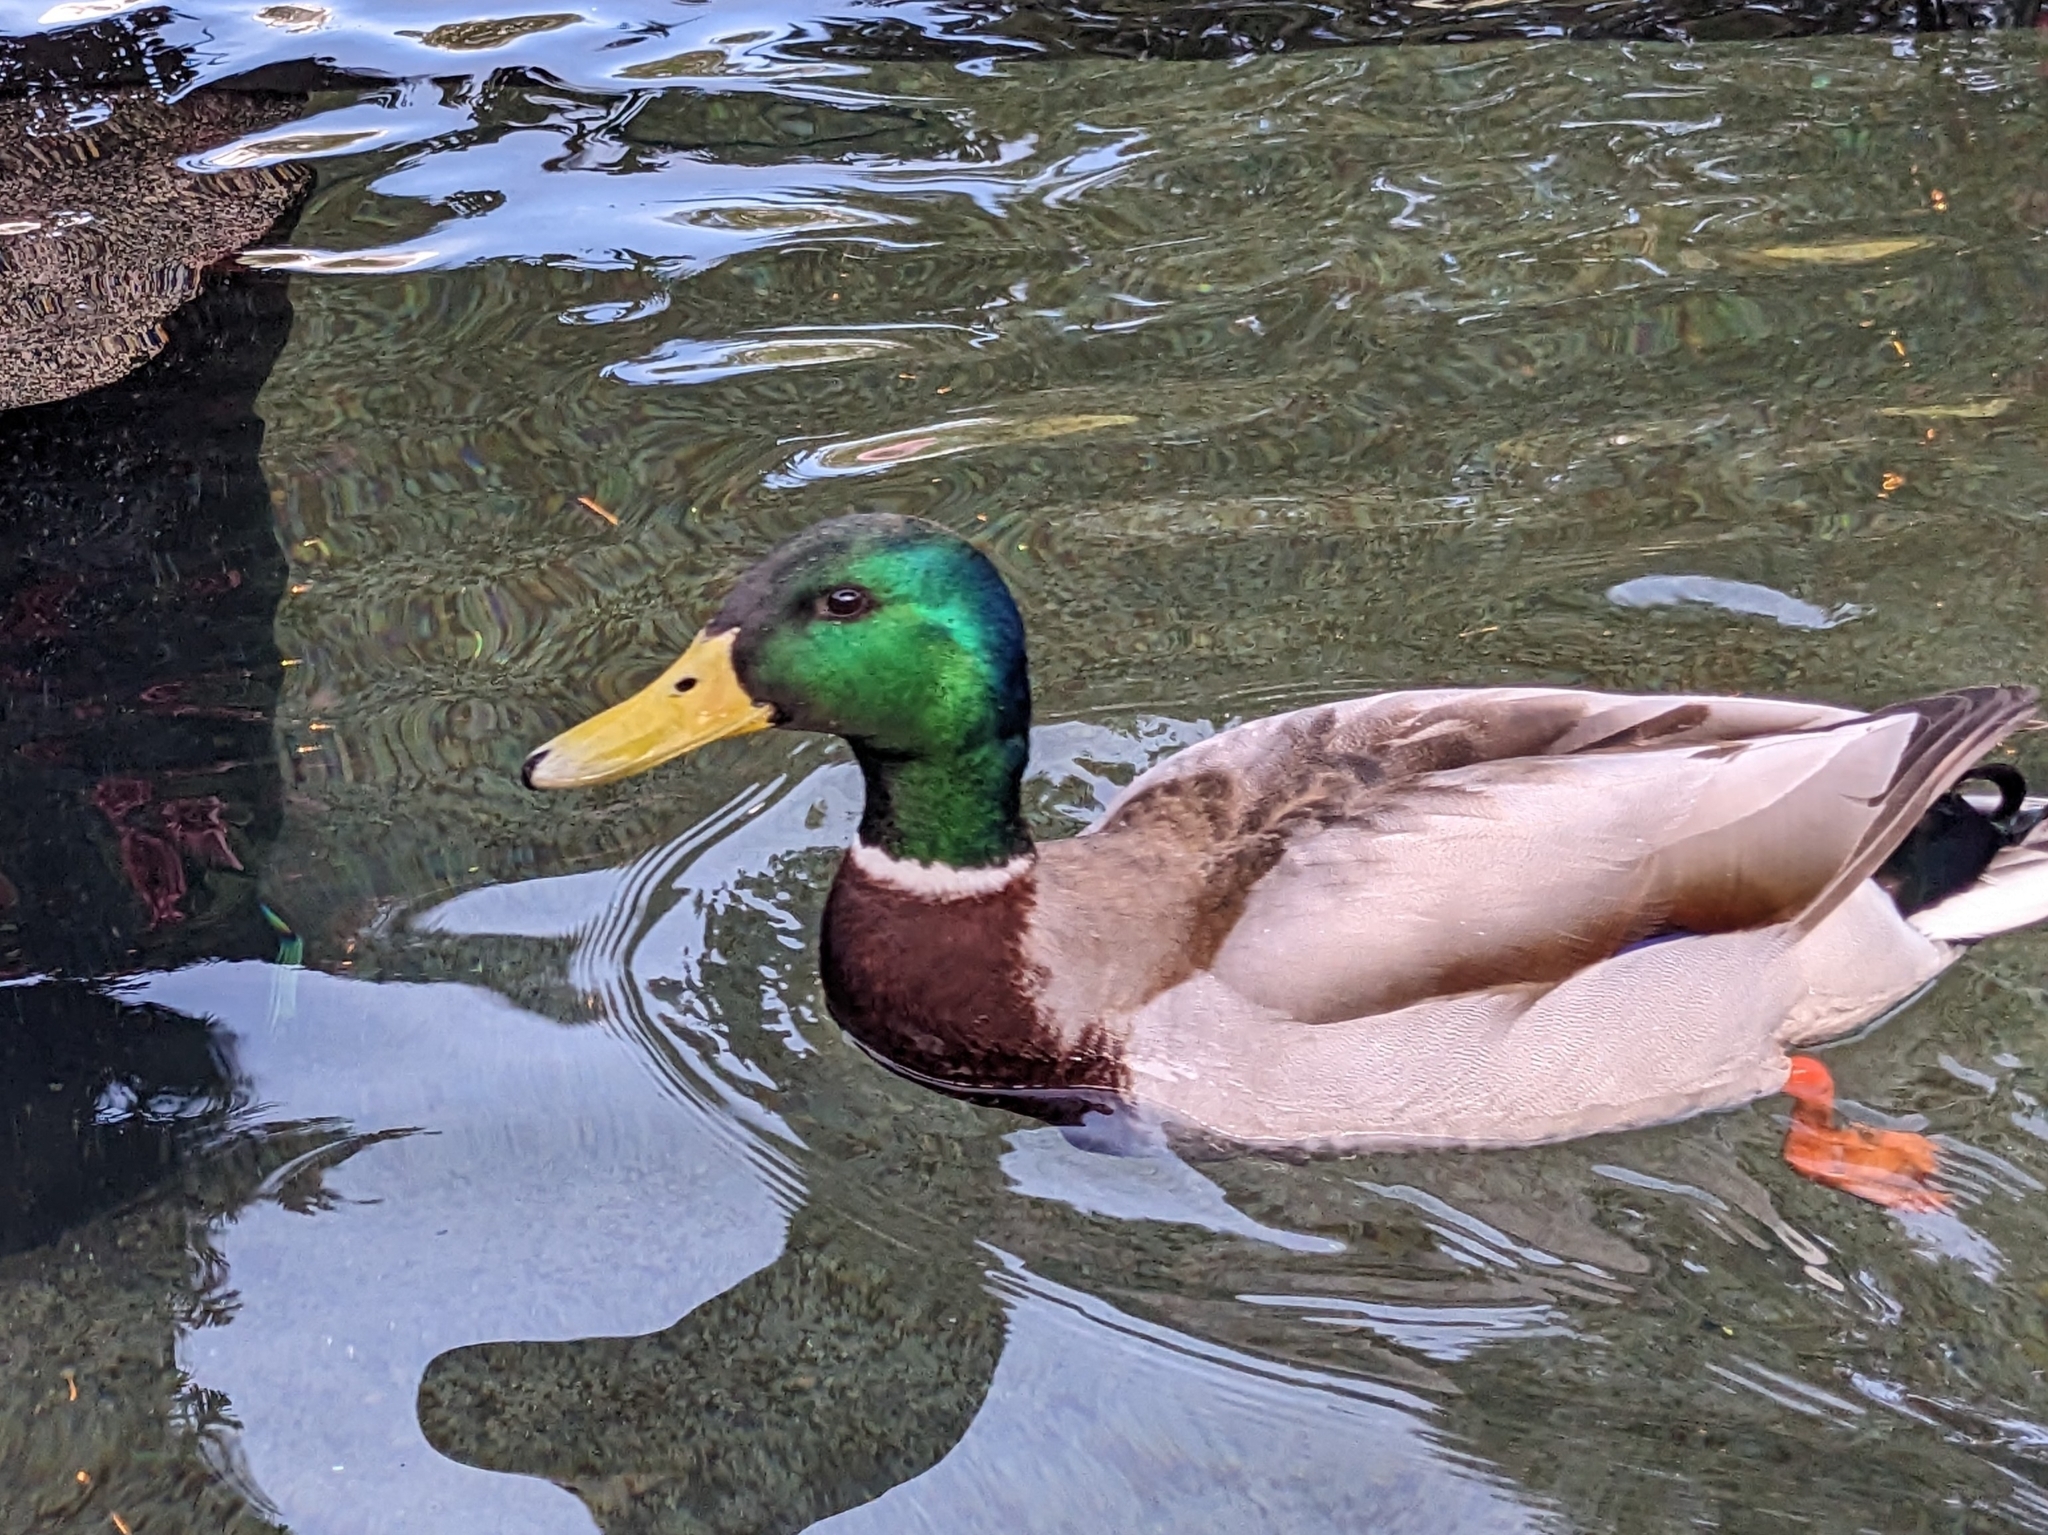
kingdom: Animalia
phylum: Chordata
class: Aves
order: Anseriformes
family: Anatidae
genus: Anas
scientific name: Anas platyrhynchos
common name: Mallard
